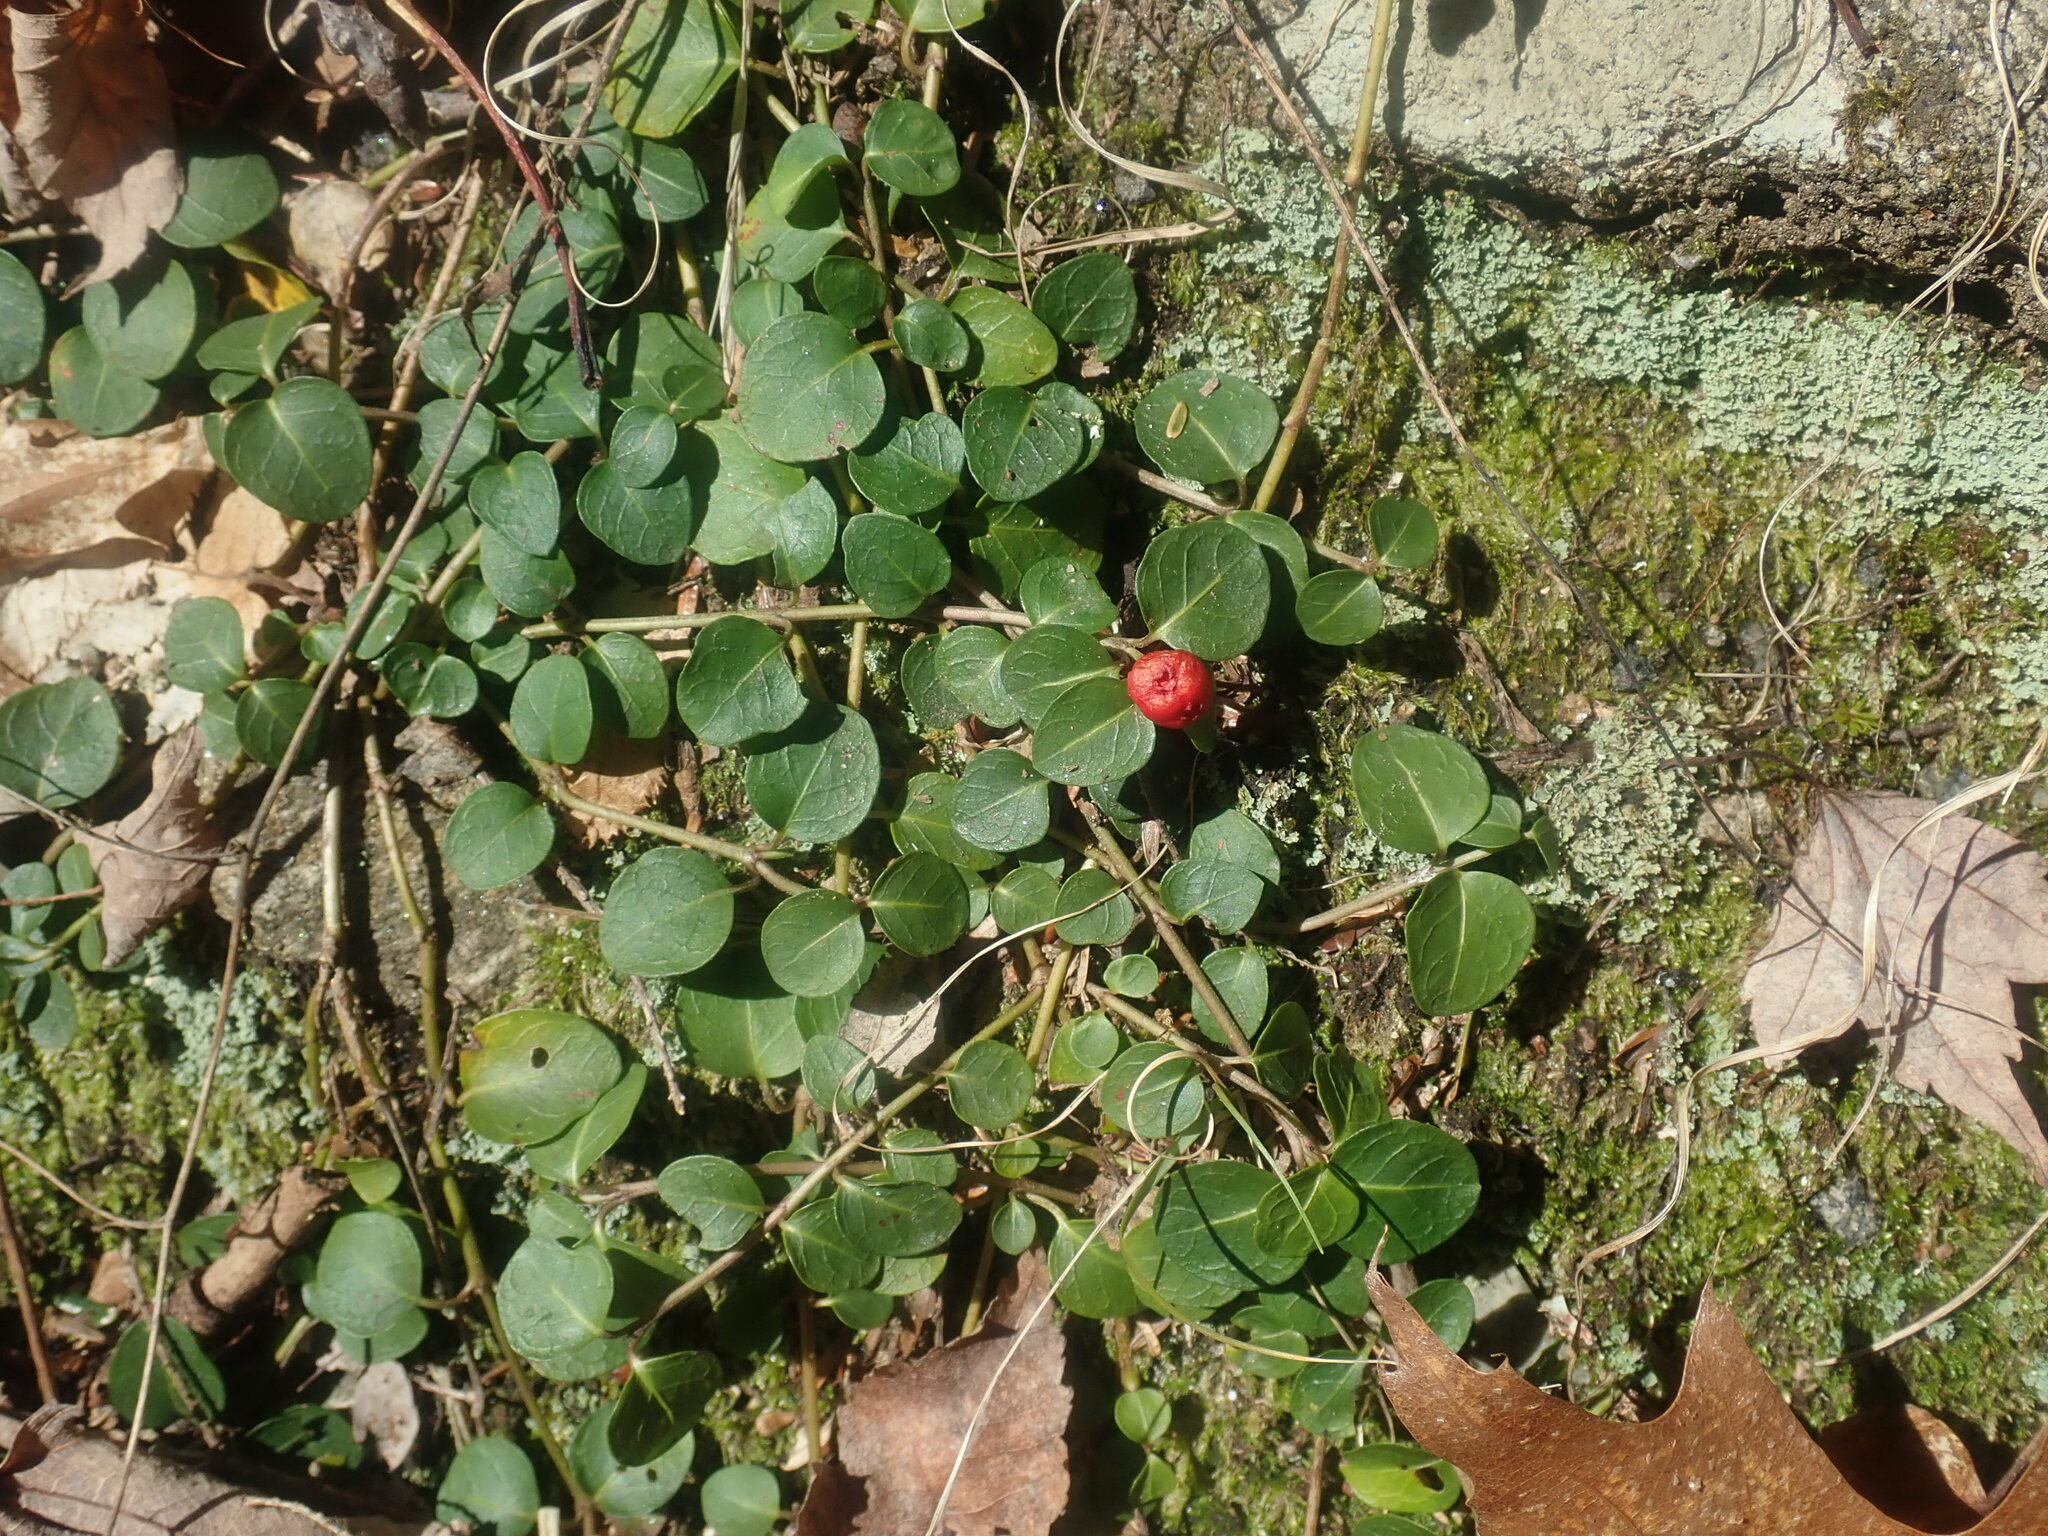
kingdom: Plantae
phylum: Tracheophyta
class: Magnoliopsida
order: Gentianales
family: Rubiaceae
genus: Mitchella
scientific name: Mitchella repens
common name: Partridge-berry
